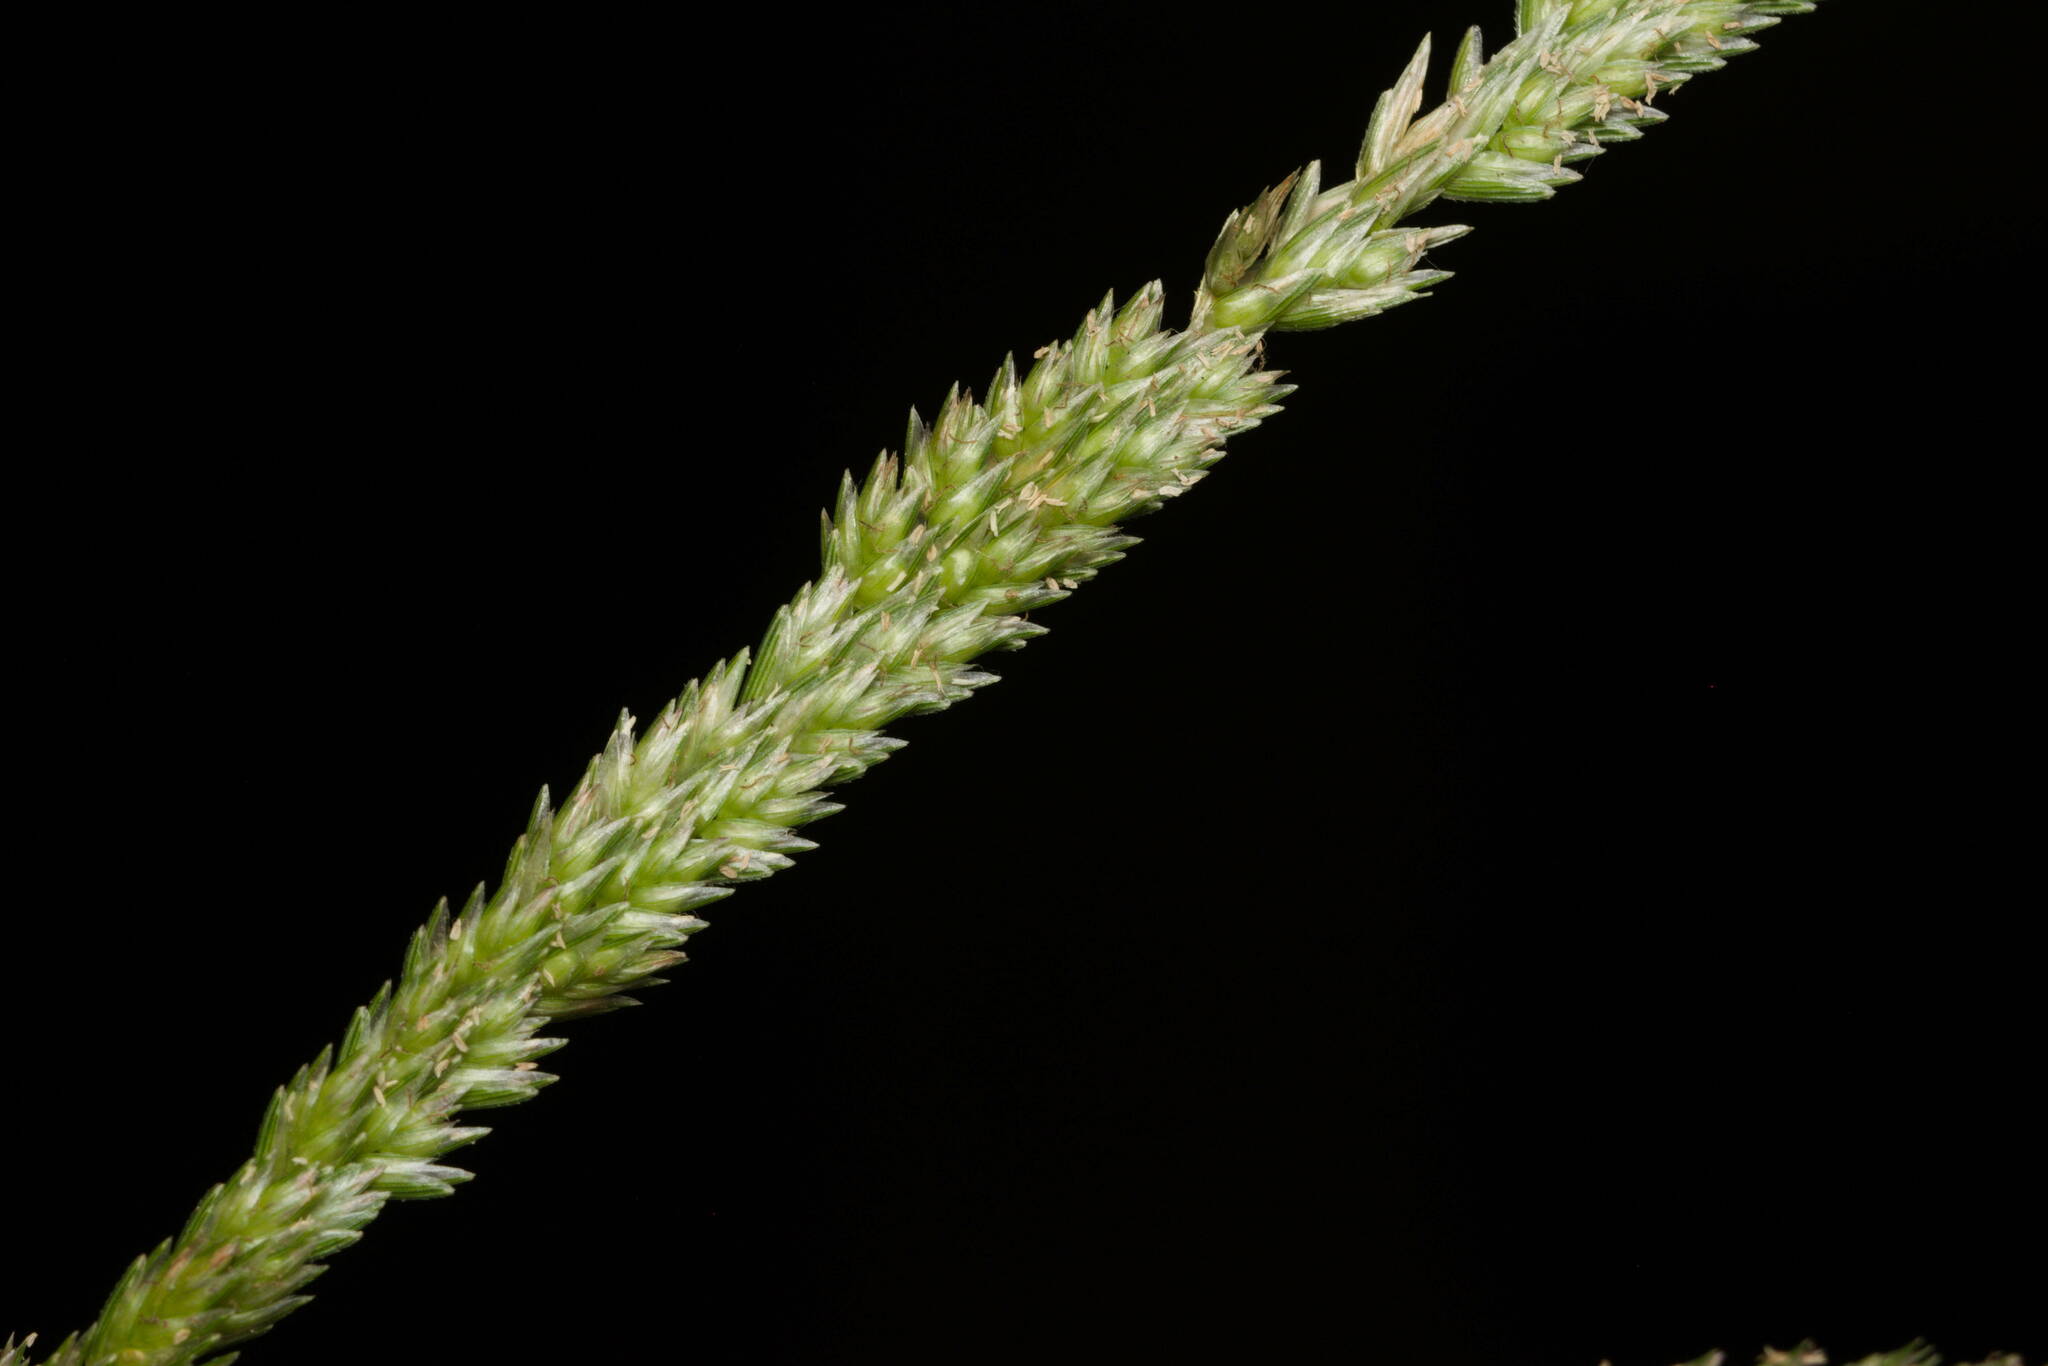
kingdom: Plantae
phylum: Tracheophyta
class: Liliopsida
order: Poales
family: Poaceae
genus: Eleusine
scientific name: Eleusine indica
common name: Yard-grass
